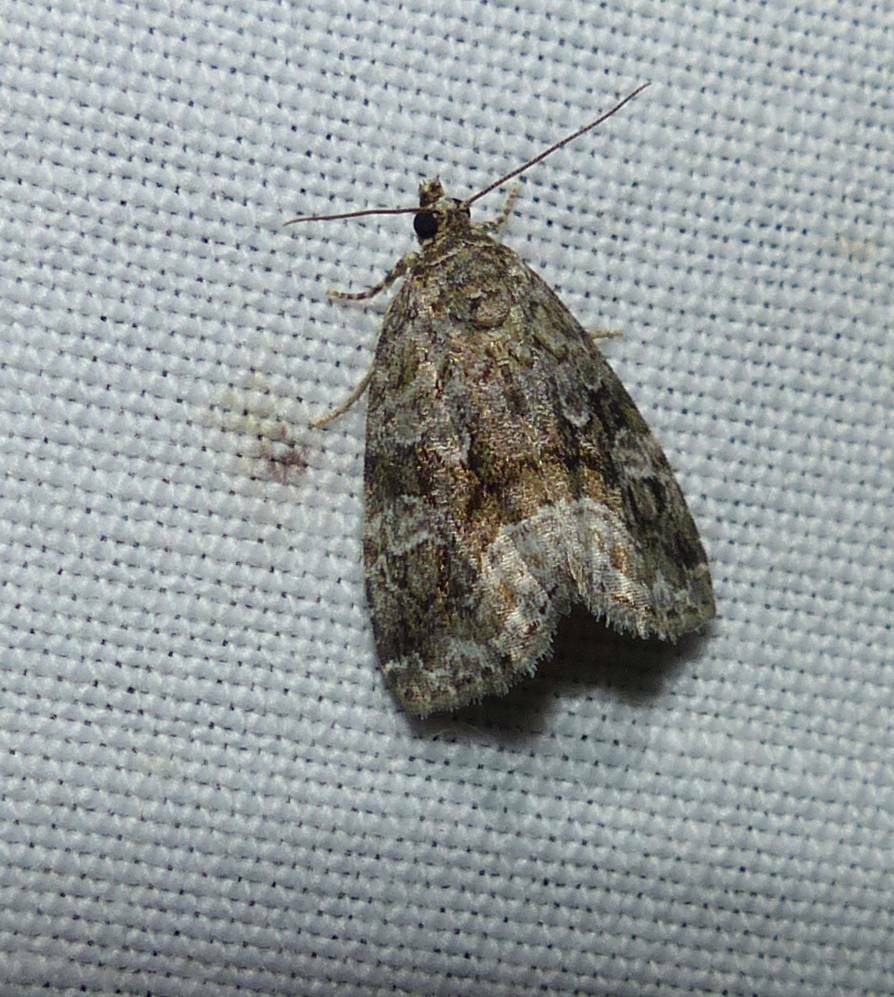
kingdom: Animalia
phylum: Arthropoda
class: Insecta
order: Lepidoptera
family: Noctuidae
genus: Protodeltote
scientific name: Protodeltote muscosula
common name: Large mossy glyph
